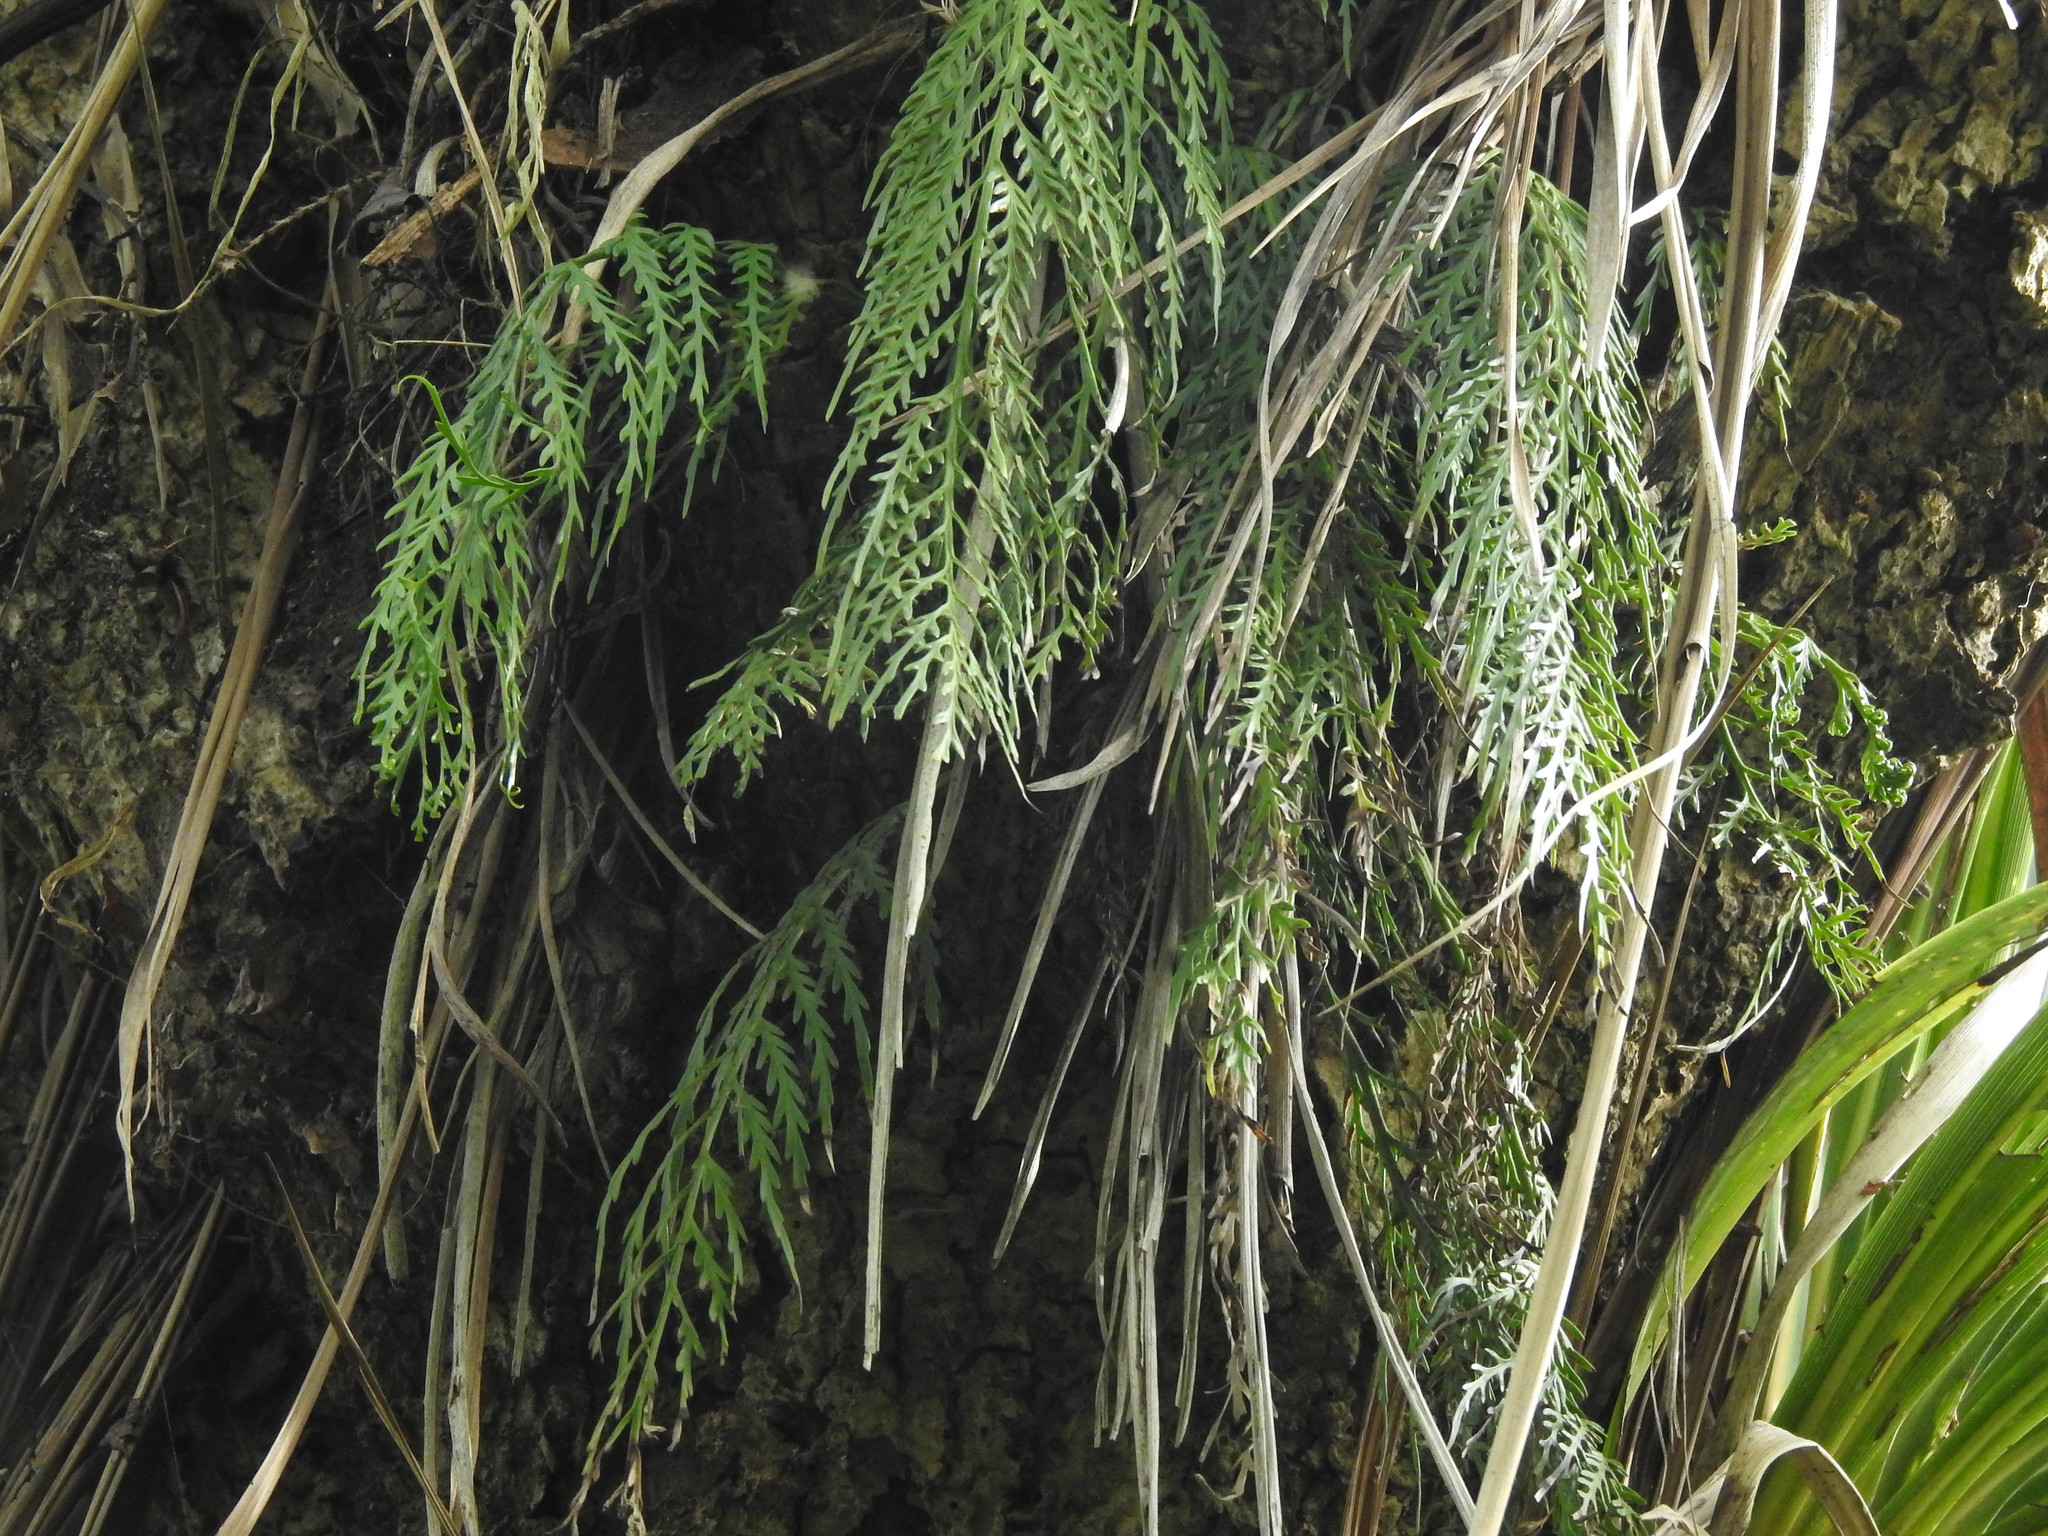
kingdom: Plantae
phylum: Tracheophyta
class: Polypodiopsida
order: Polypodiales
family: Aspleniaceae
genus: Asplenium
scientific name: Asplenium flaccidum
